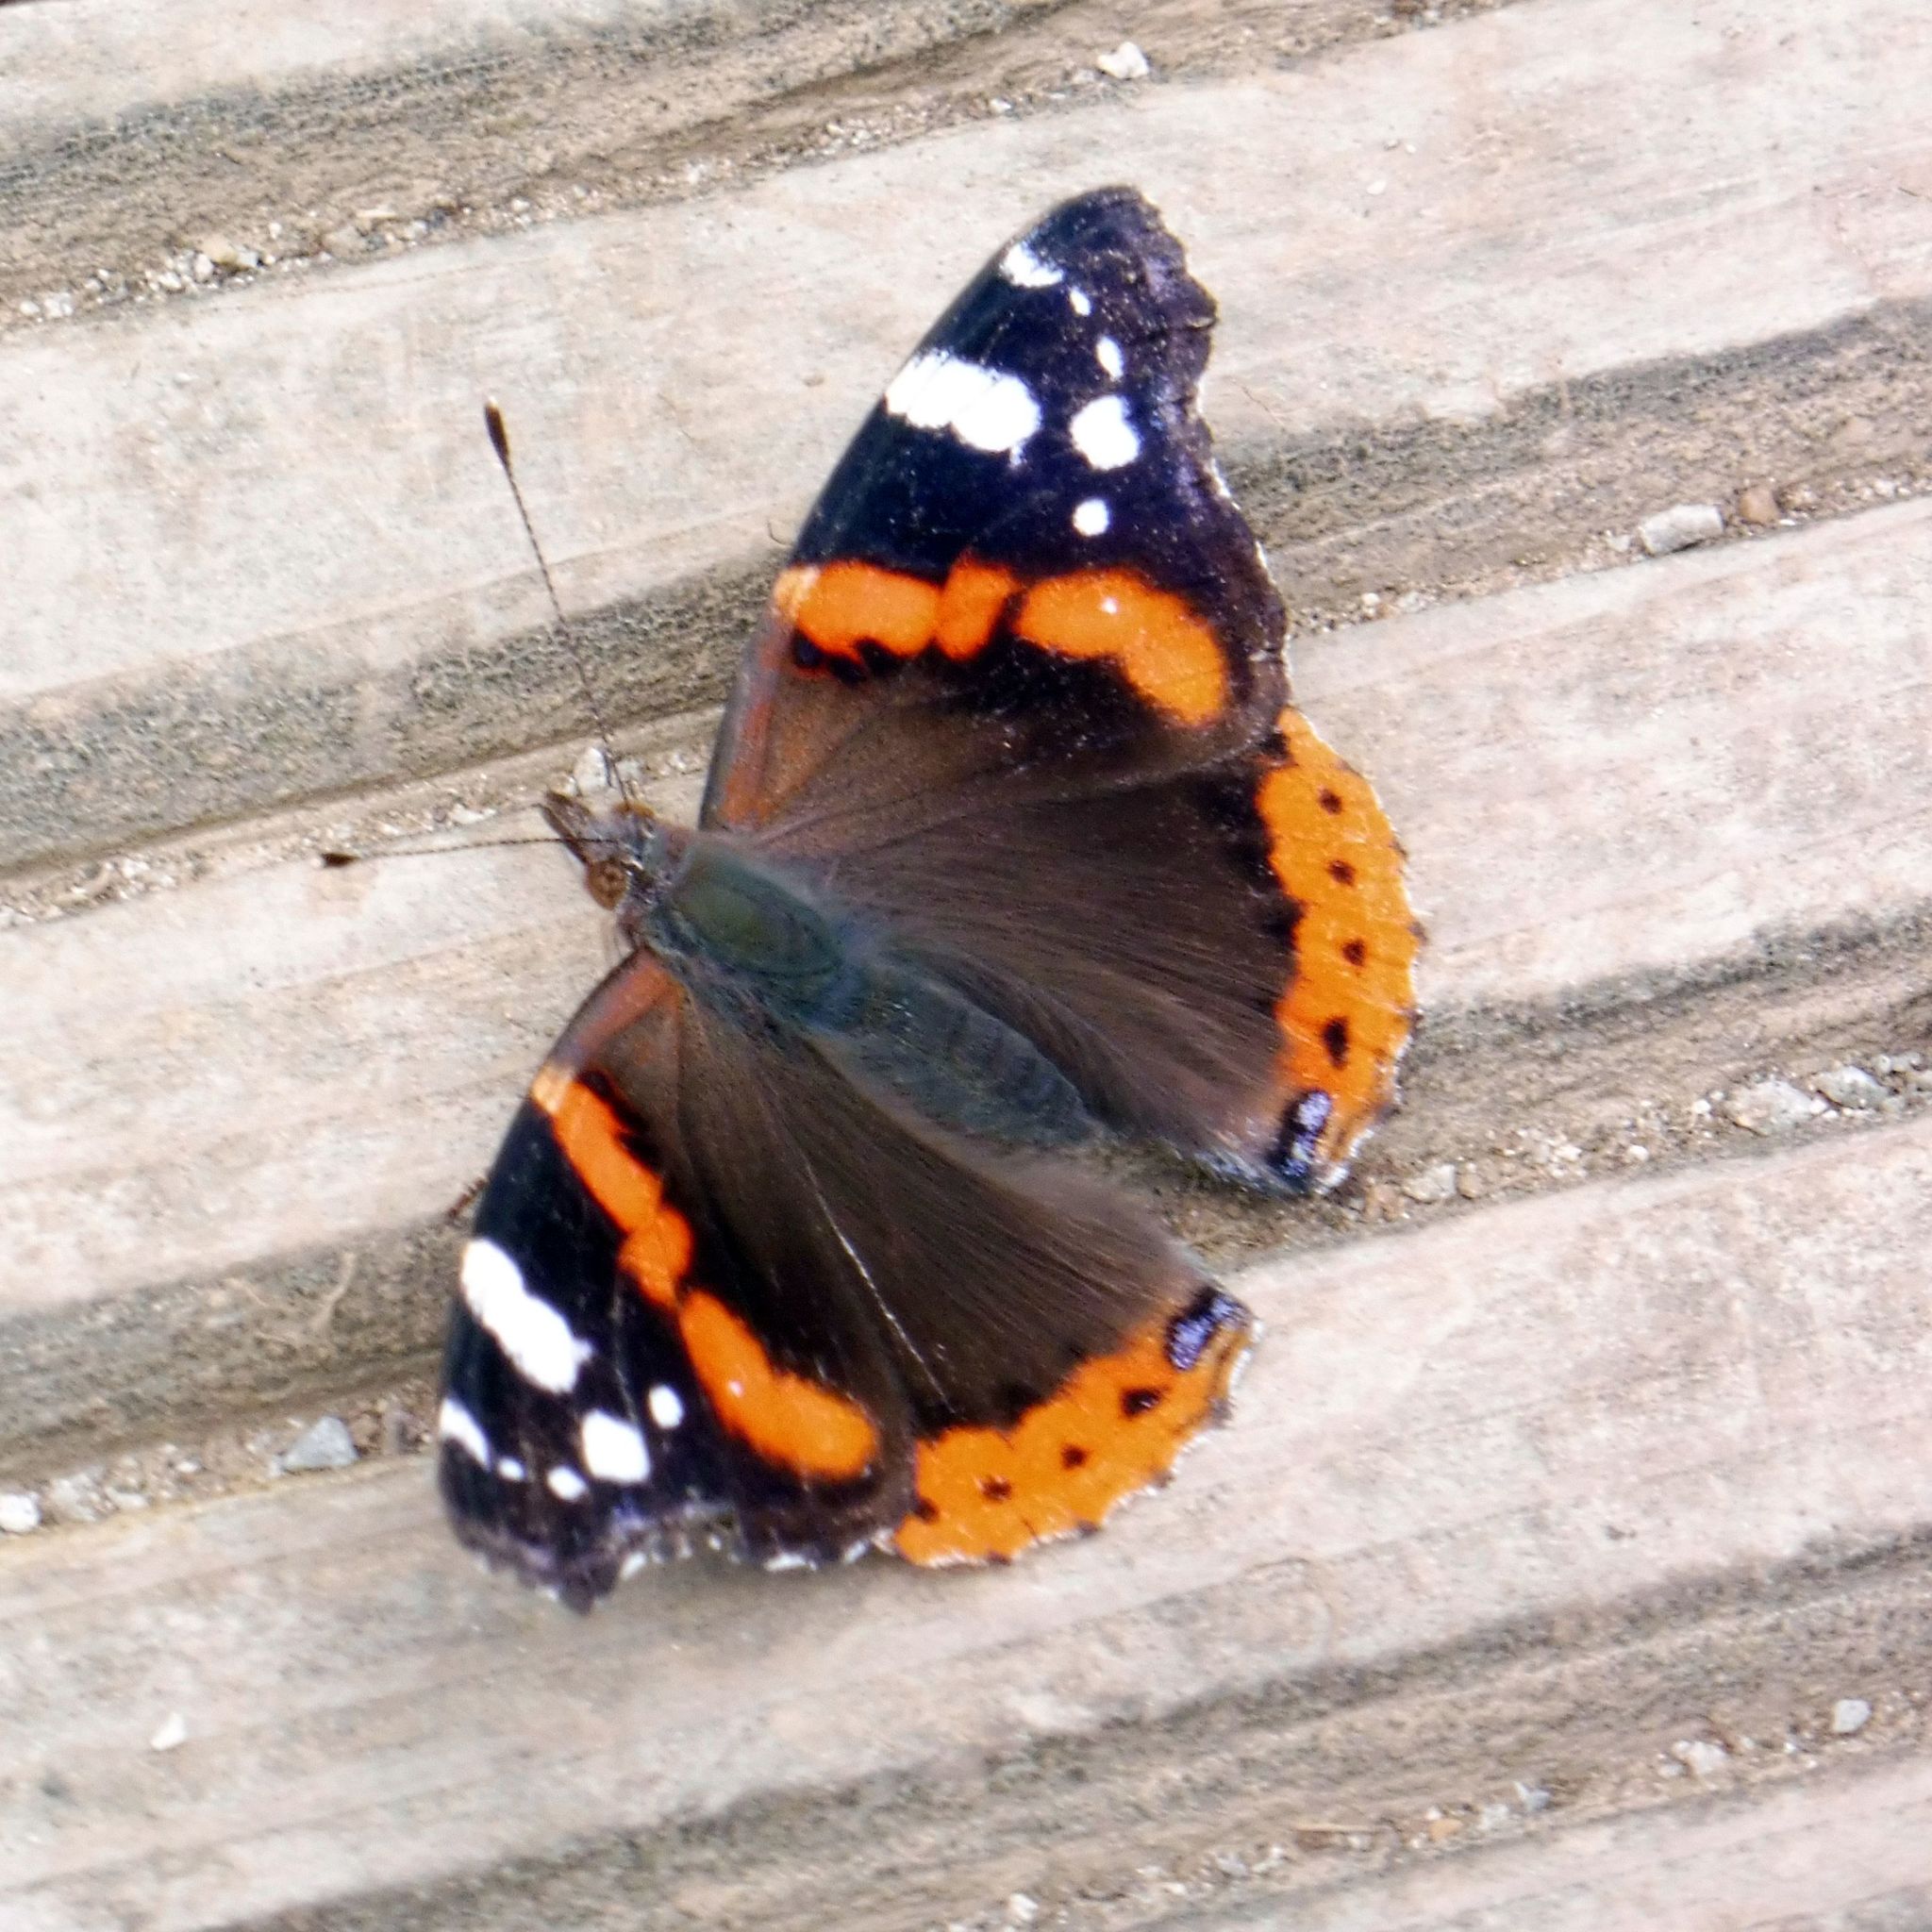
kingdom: Animalia
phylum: Arthropoda
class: Insecta
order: Lepidoptera
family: Nymphalidae
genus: Vanessa
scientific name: Vanessa atalanta
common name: Red admiral
